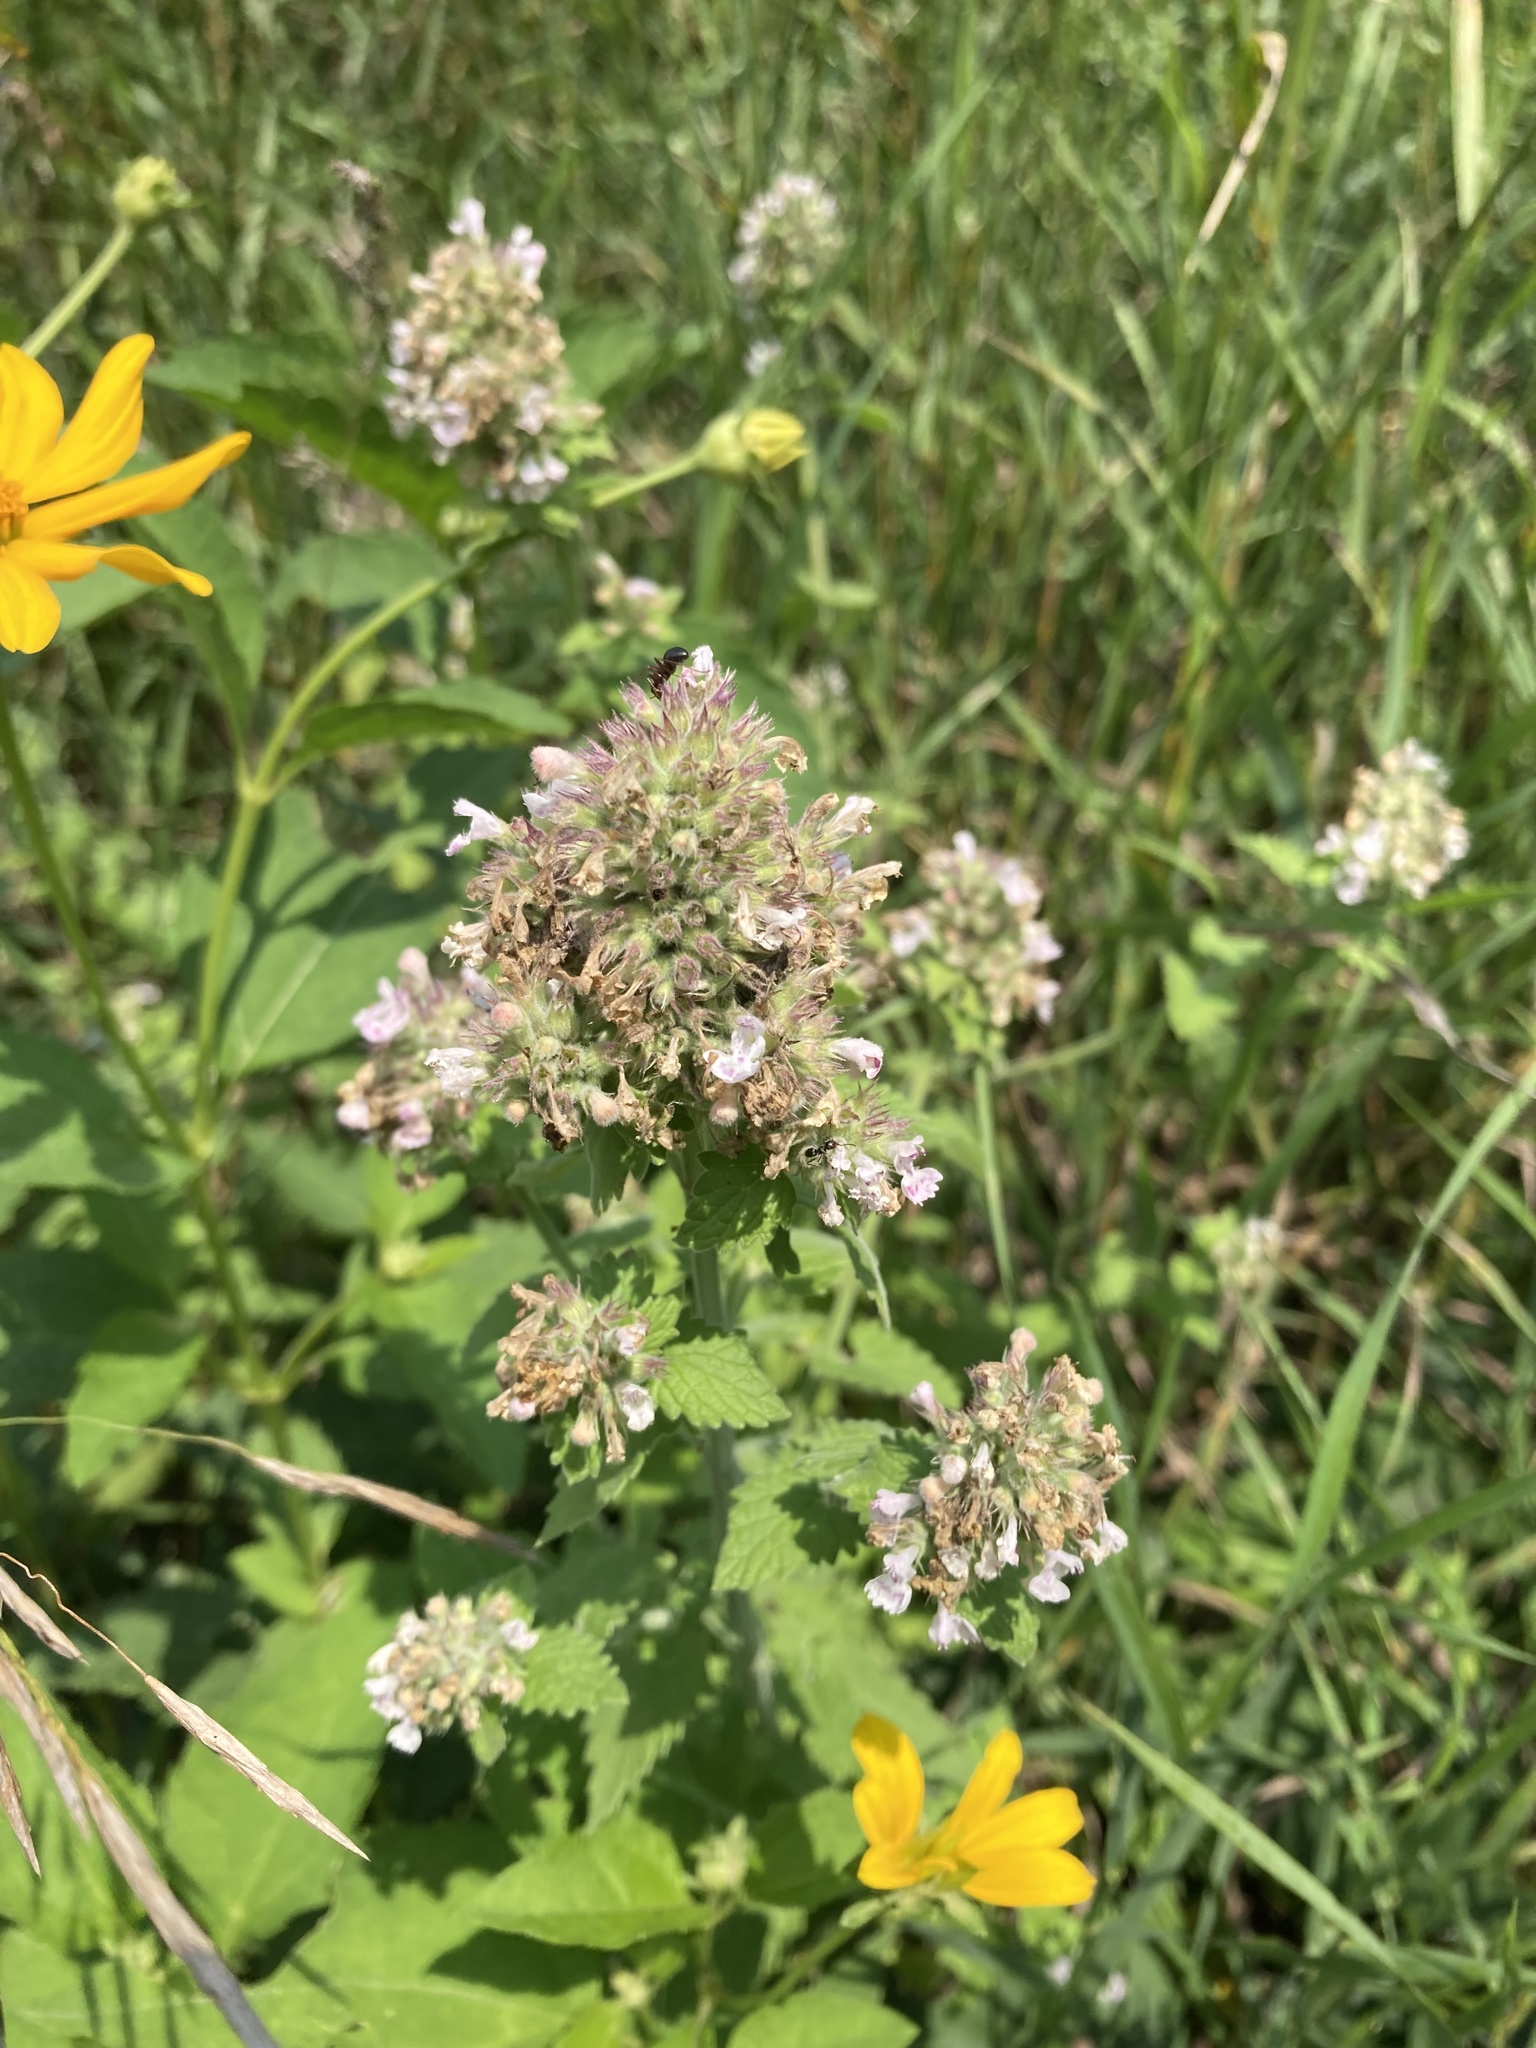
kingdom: Plantae
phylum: Tracheophyta
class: Magnoliopsida
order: Lamiales
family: Lamiaceae
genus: Nepeta
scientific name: Nepeta cataria
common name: Catnip
